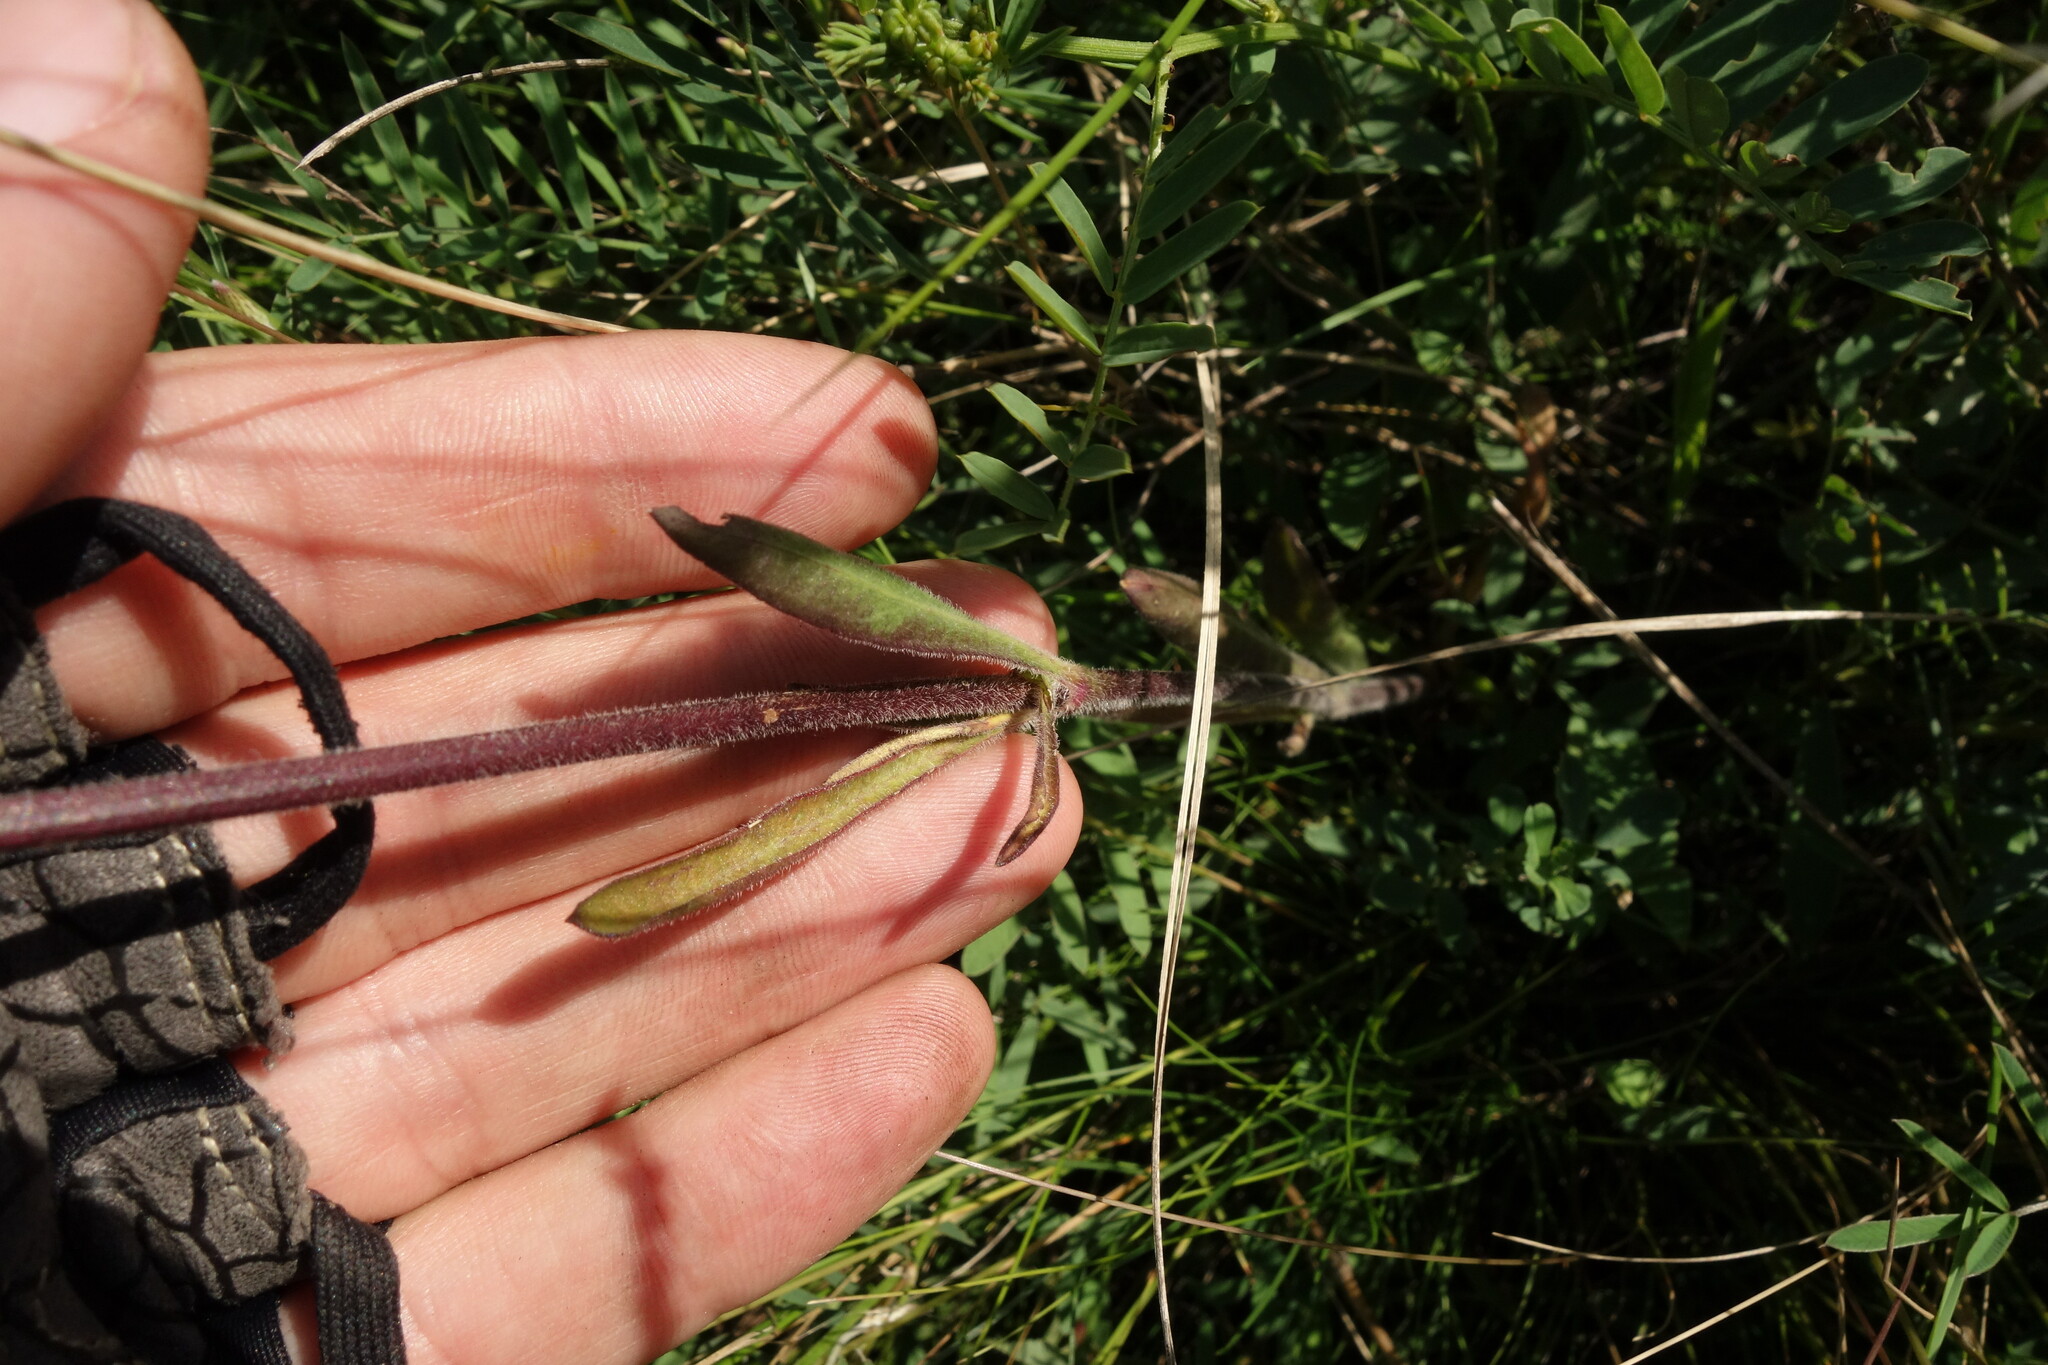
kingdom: Plantae
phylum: Tracheophyta
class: Magnoliopsida
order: Caryophyllales
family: Caryophyllaceae
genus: Silene
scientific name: Silene borysthenica
